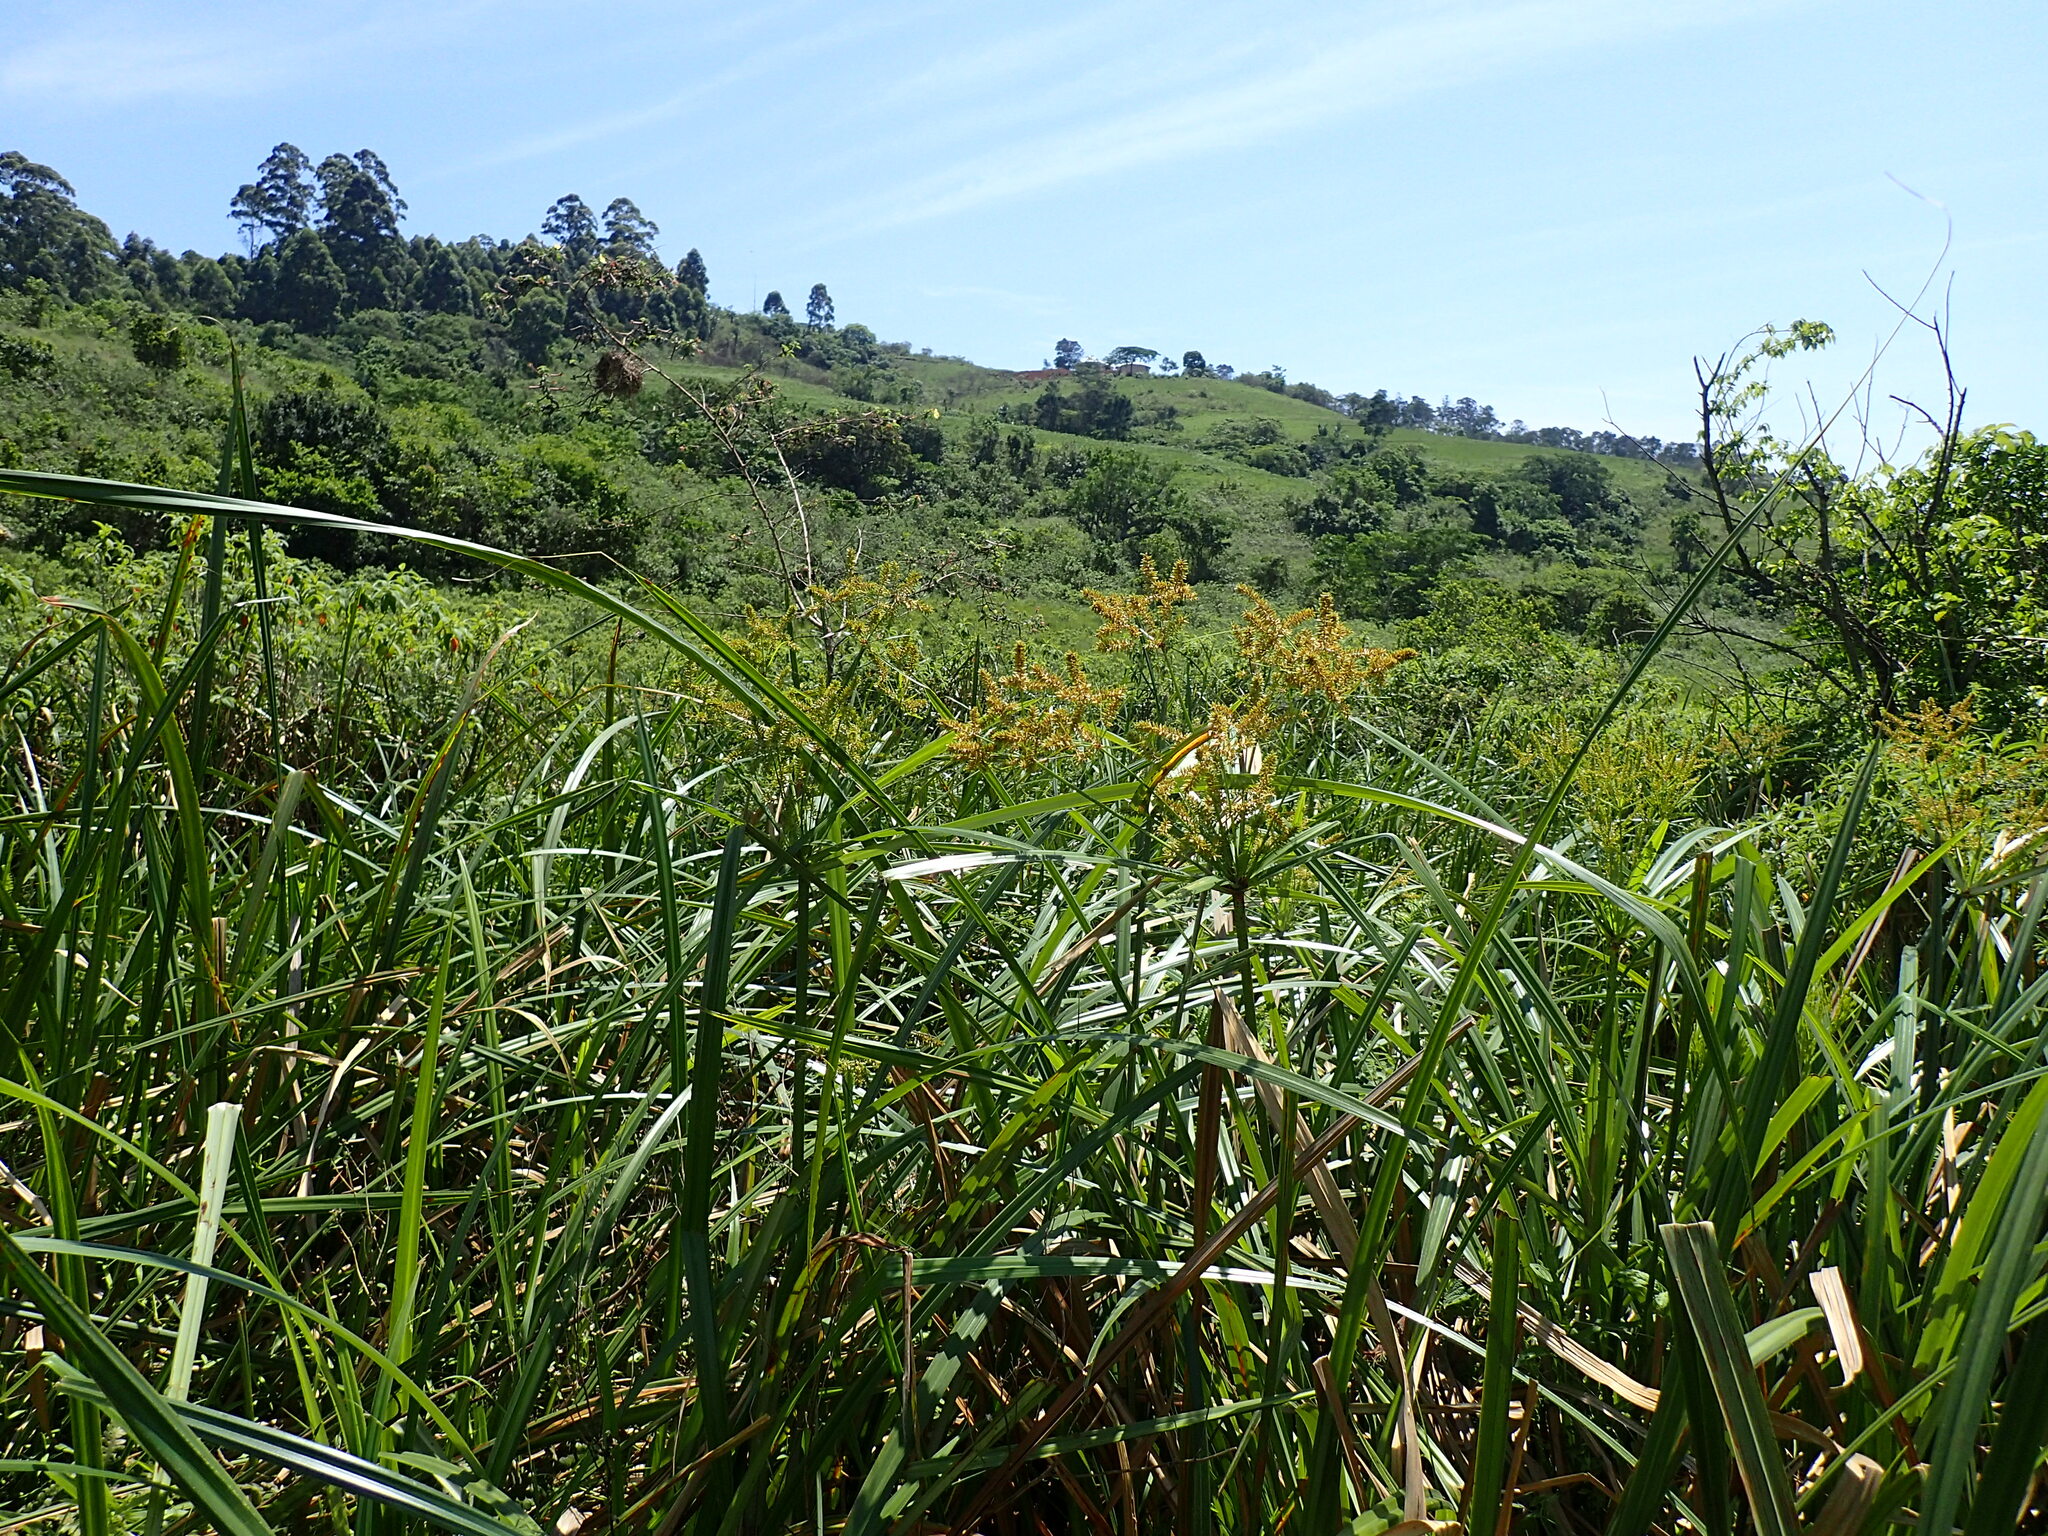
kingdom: Plantae
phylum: Tracheophyta
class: Liliopsida
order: Poales
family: Cyperaceae
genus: Cyperus
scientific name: Cyperus dives
